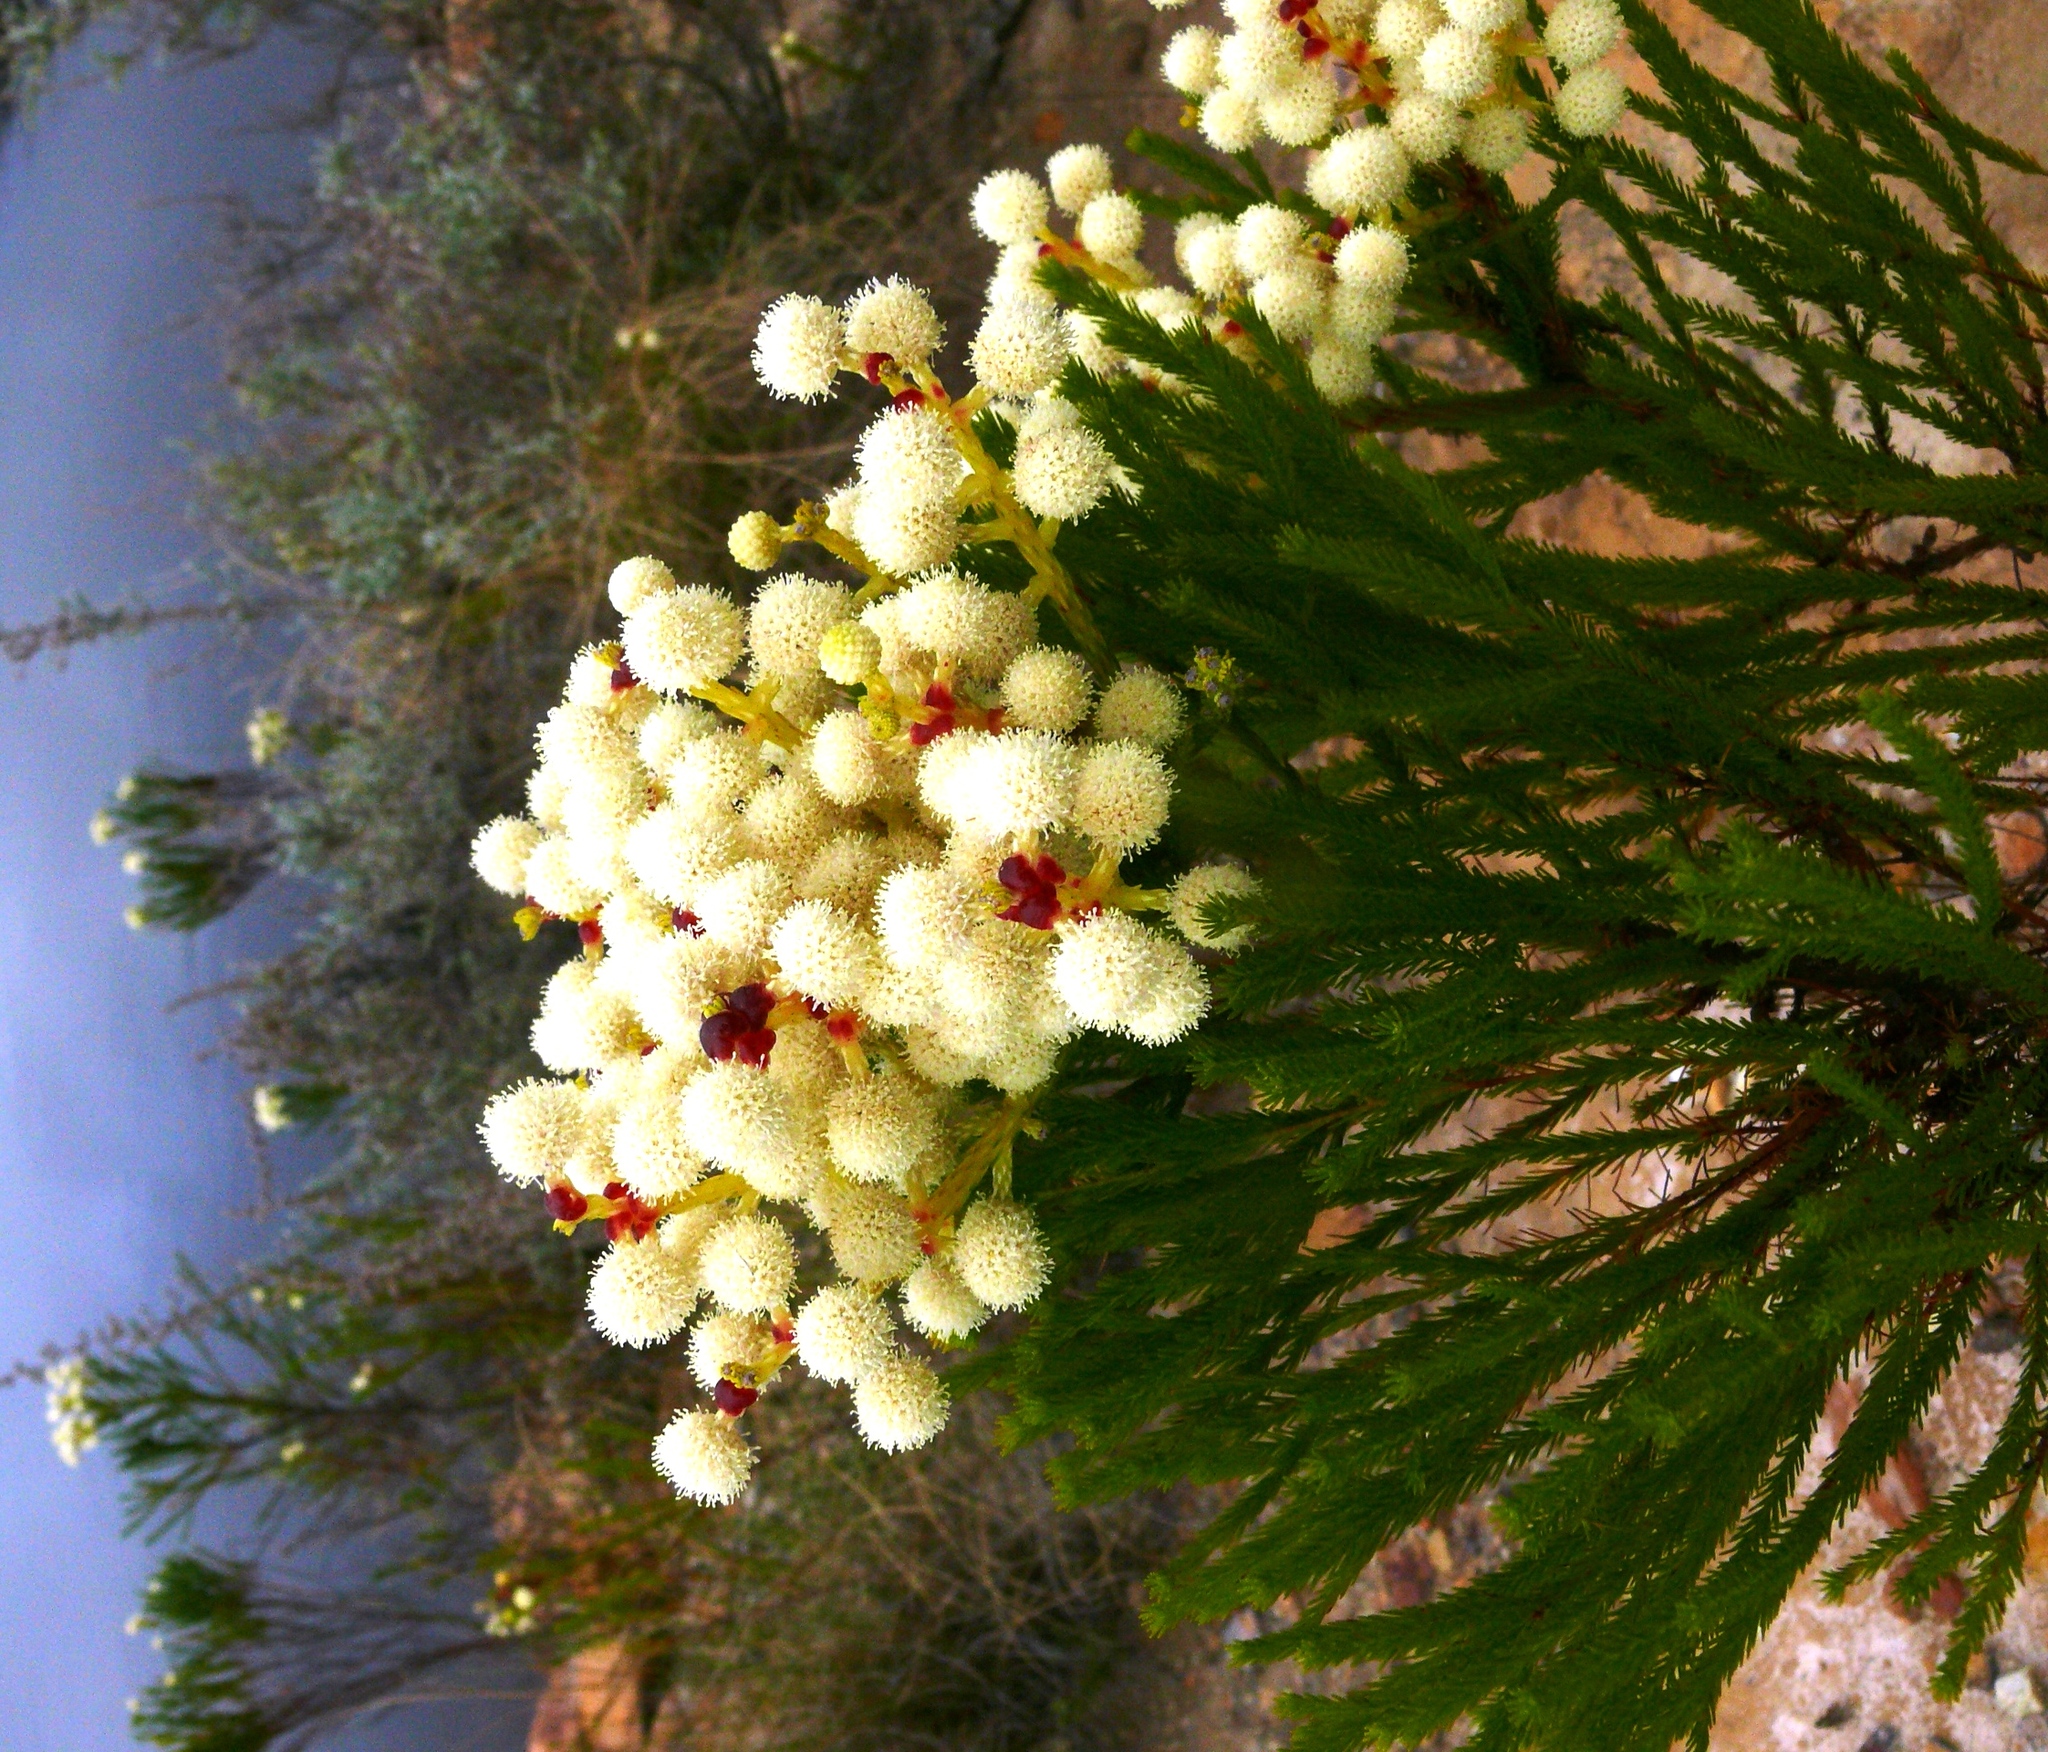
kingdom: Plantae
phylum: Tracheophyta
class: Magnoliopsida
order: Bruniales
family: Bruniaceae
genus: Berzelia
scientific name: Berzelia lanuginosa
